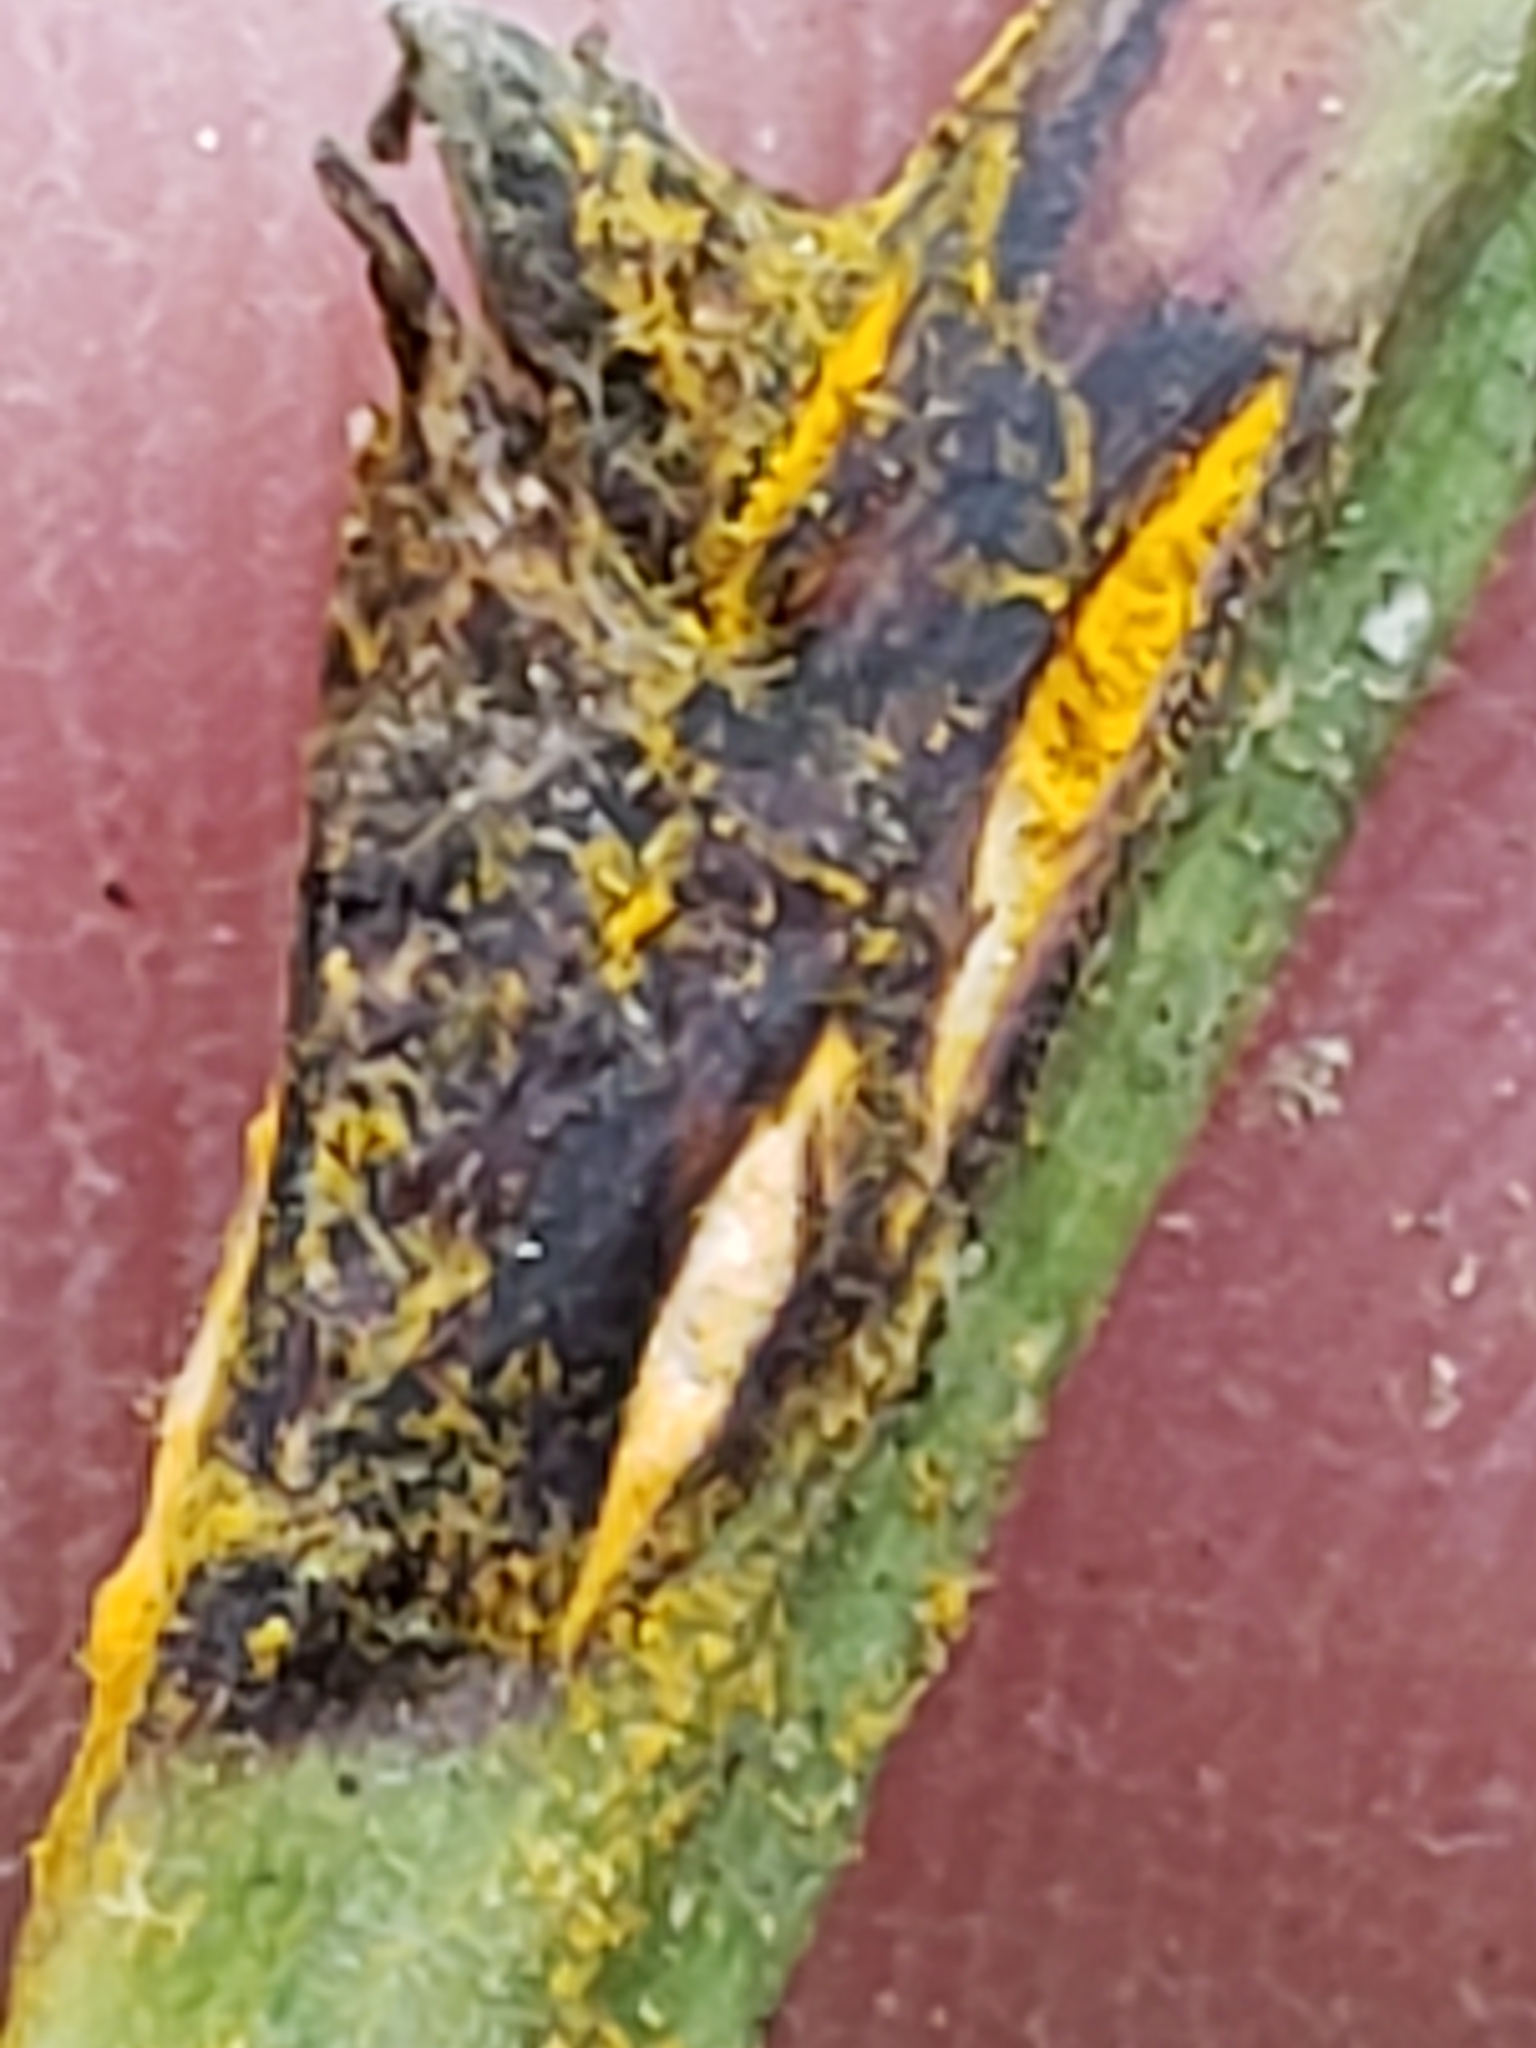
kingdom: Fungi
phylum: Basidiomycota
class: Pucciniomycetes
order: Pucciniales
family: Phragmidiaceae
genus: Kuehneola
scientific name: Kuehneola uredinis
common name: Bramble stem rust
